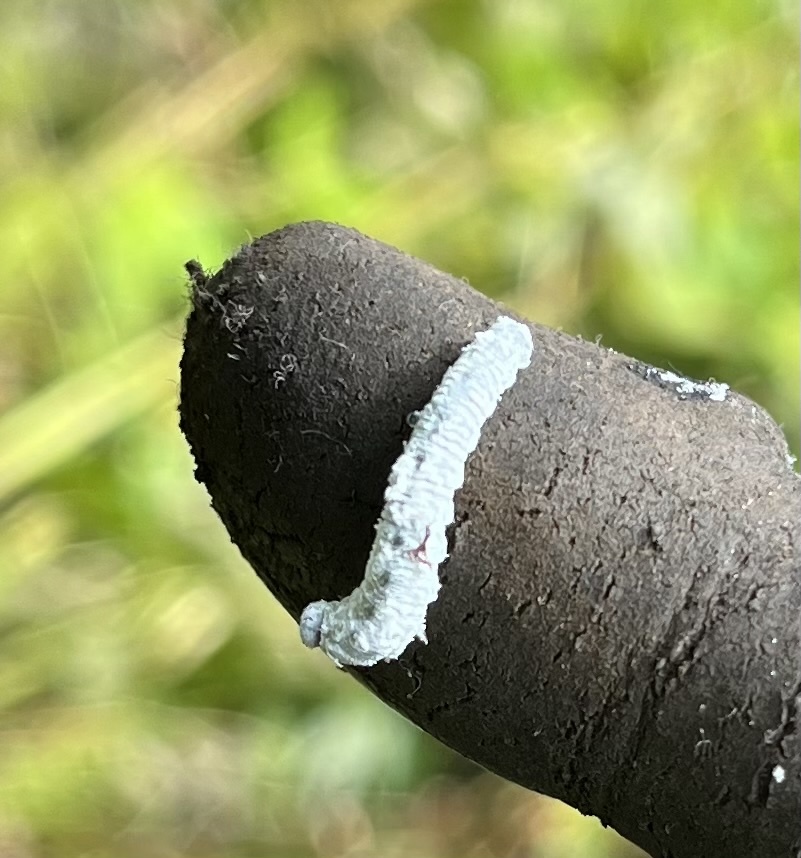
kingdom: Animalia
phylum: Arthropoda
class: Insecta
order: Hymenoptera
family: Tenthredinidae
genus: Eriocampa
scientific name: Eriocampa ovata
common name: Alder wooly sawfly
